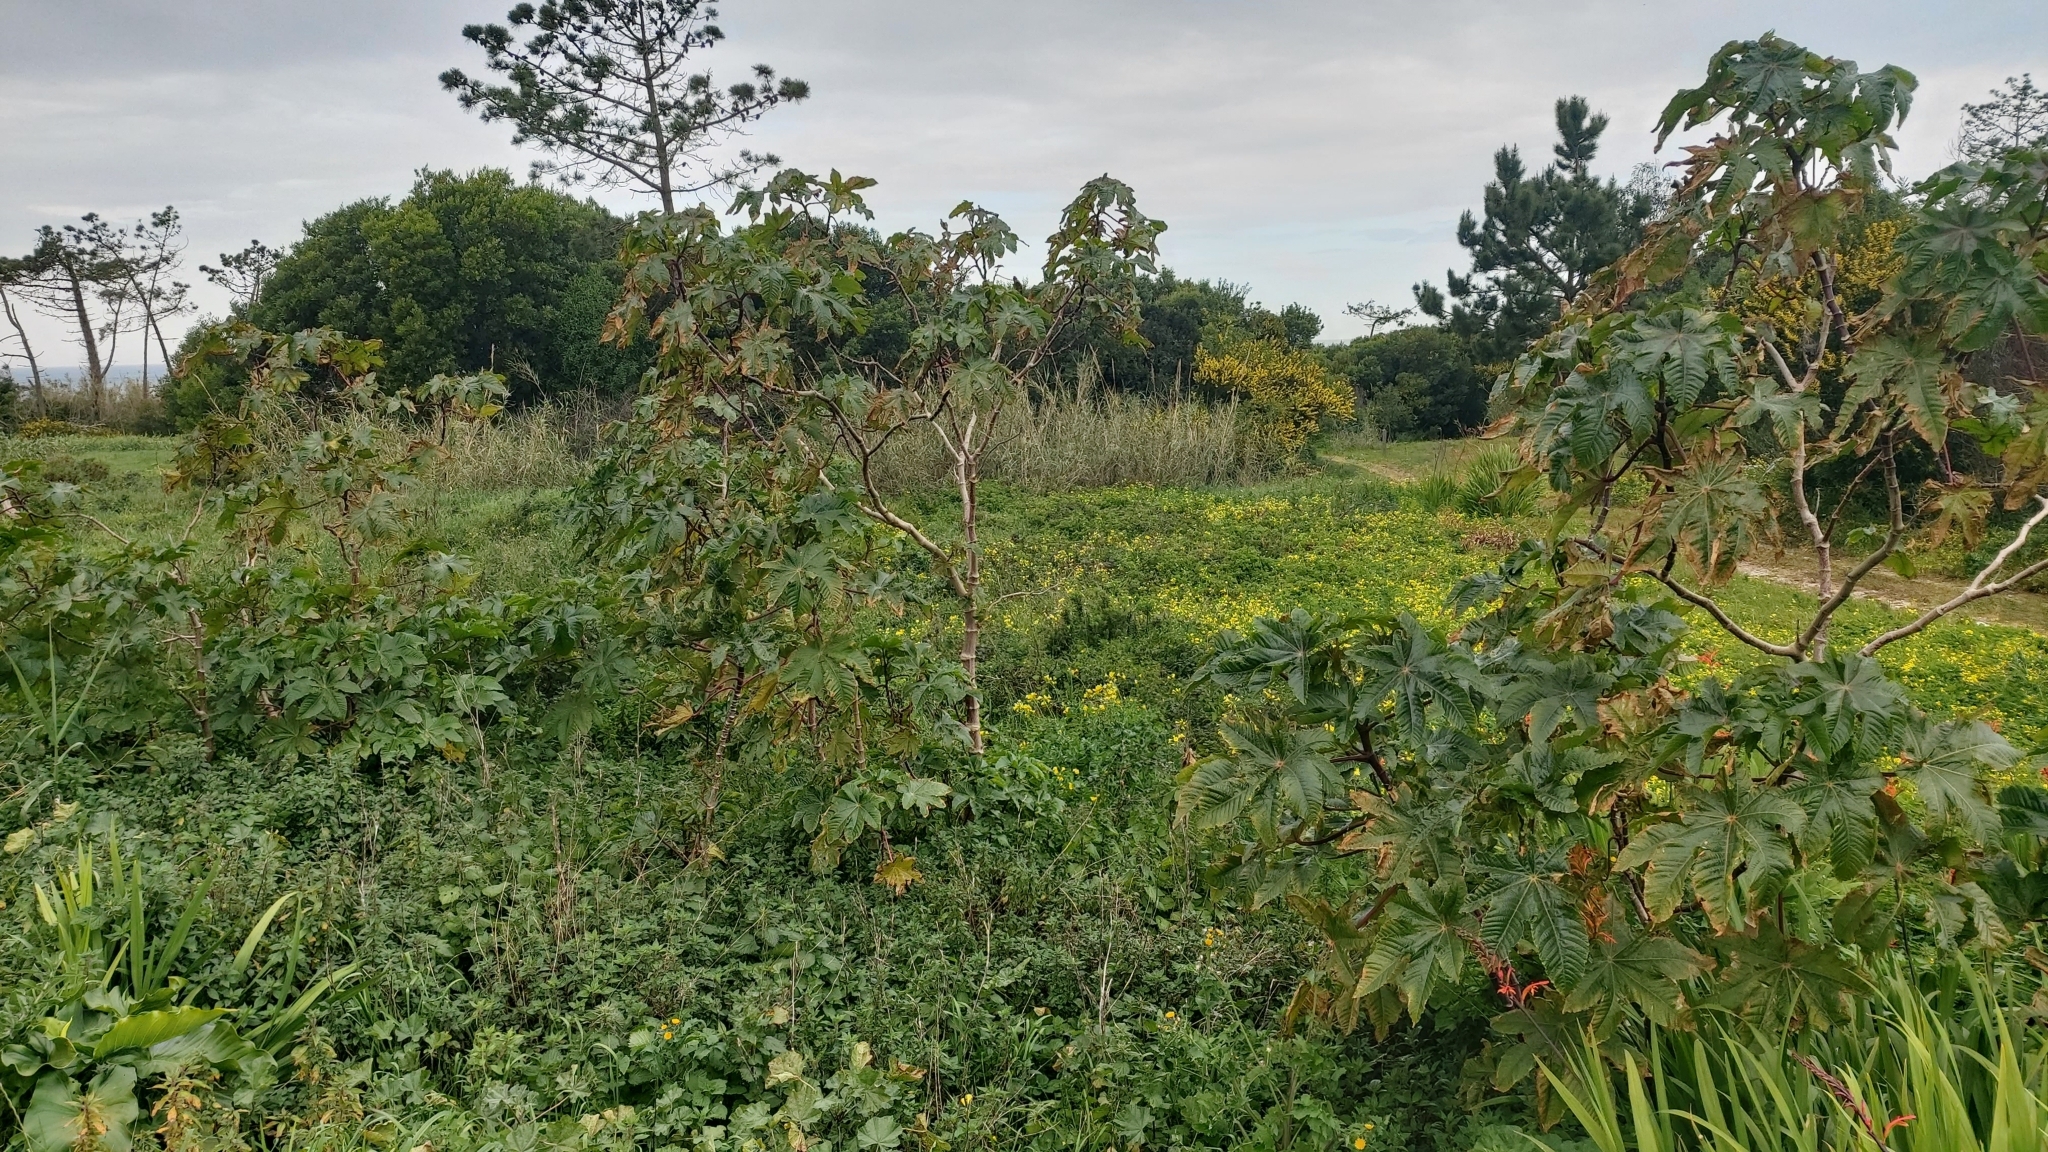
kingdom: Plantae
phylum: Tracheophyta
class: Magnoliopsida
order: Malpighiales
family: Euphorbiaceae
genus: Ricinus
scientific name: Ricinus communis
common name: Castor-oil-plant
